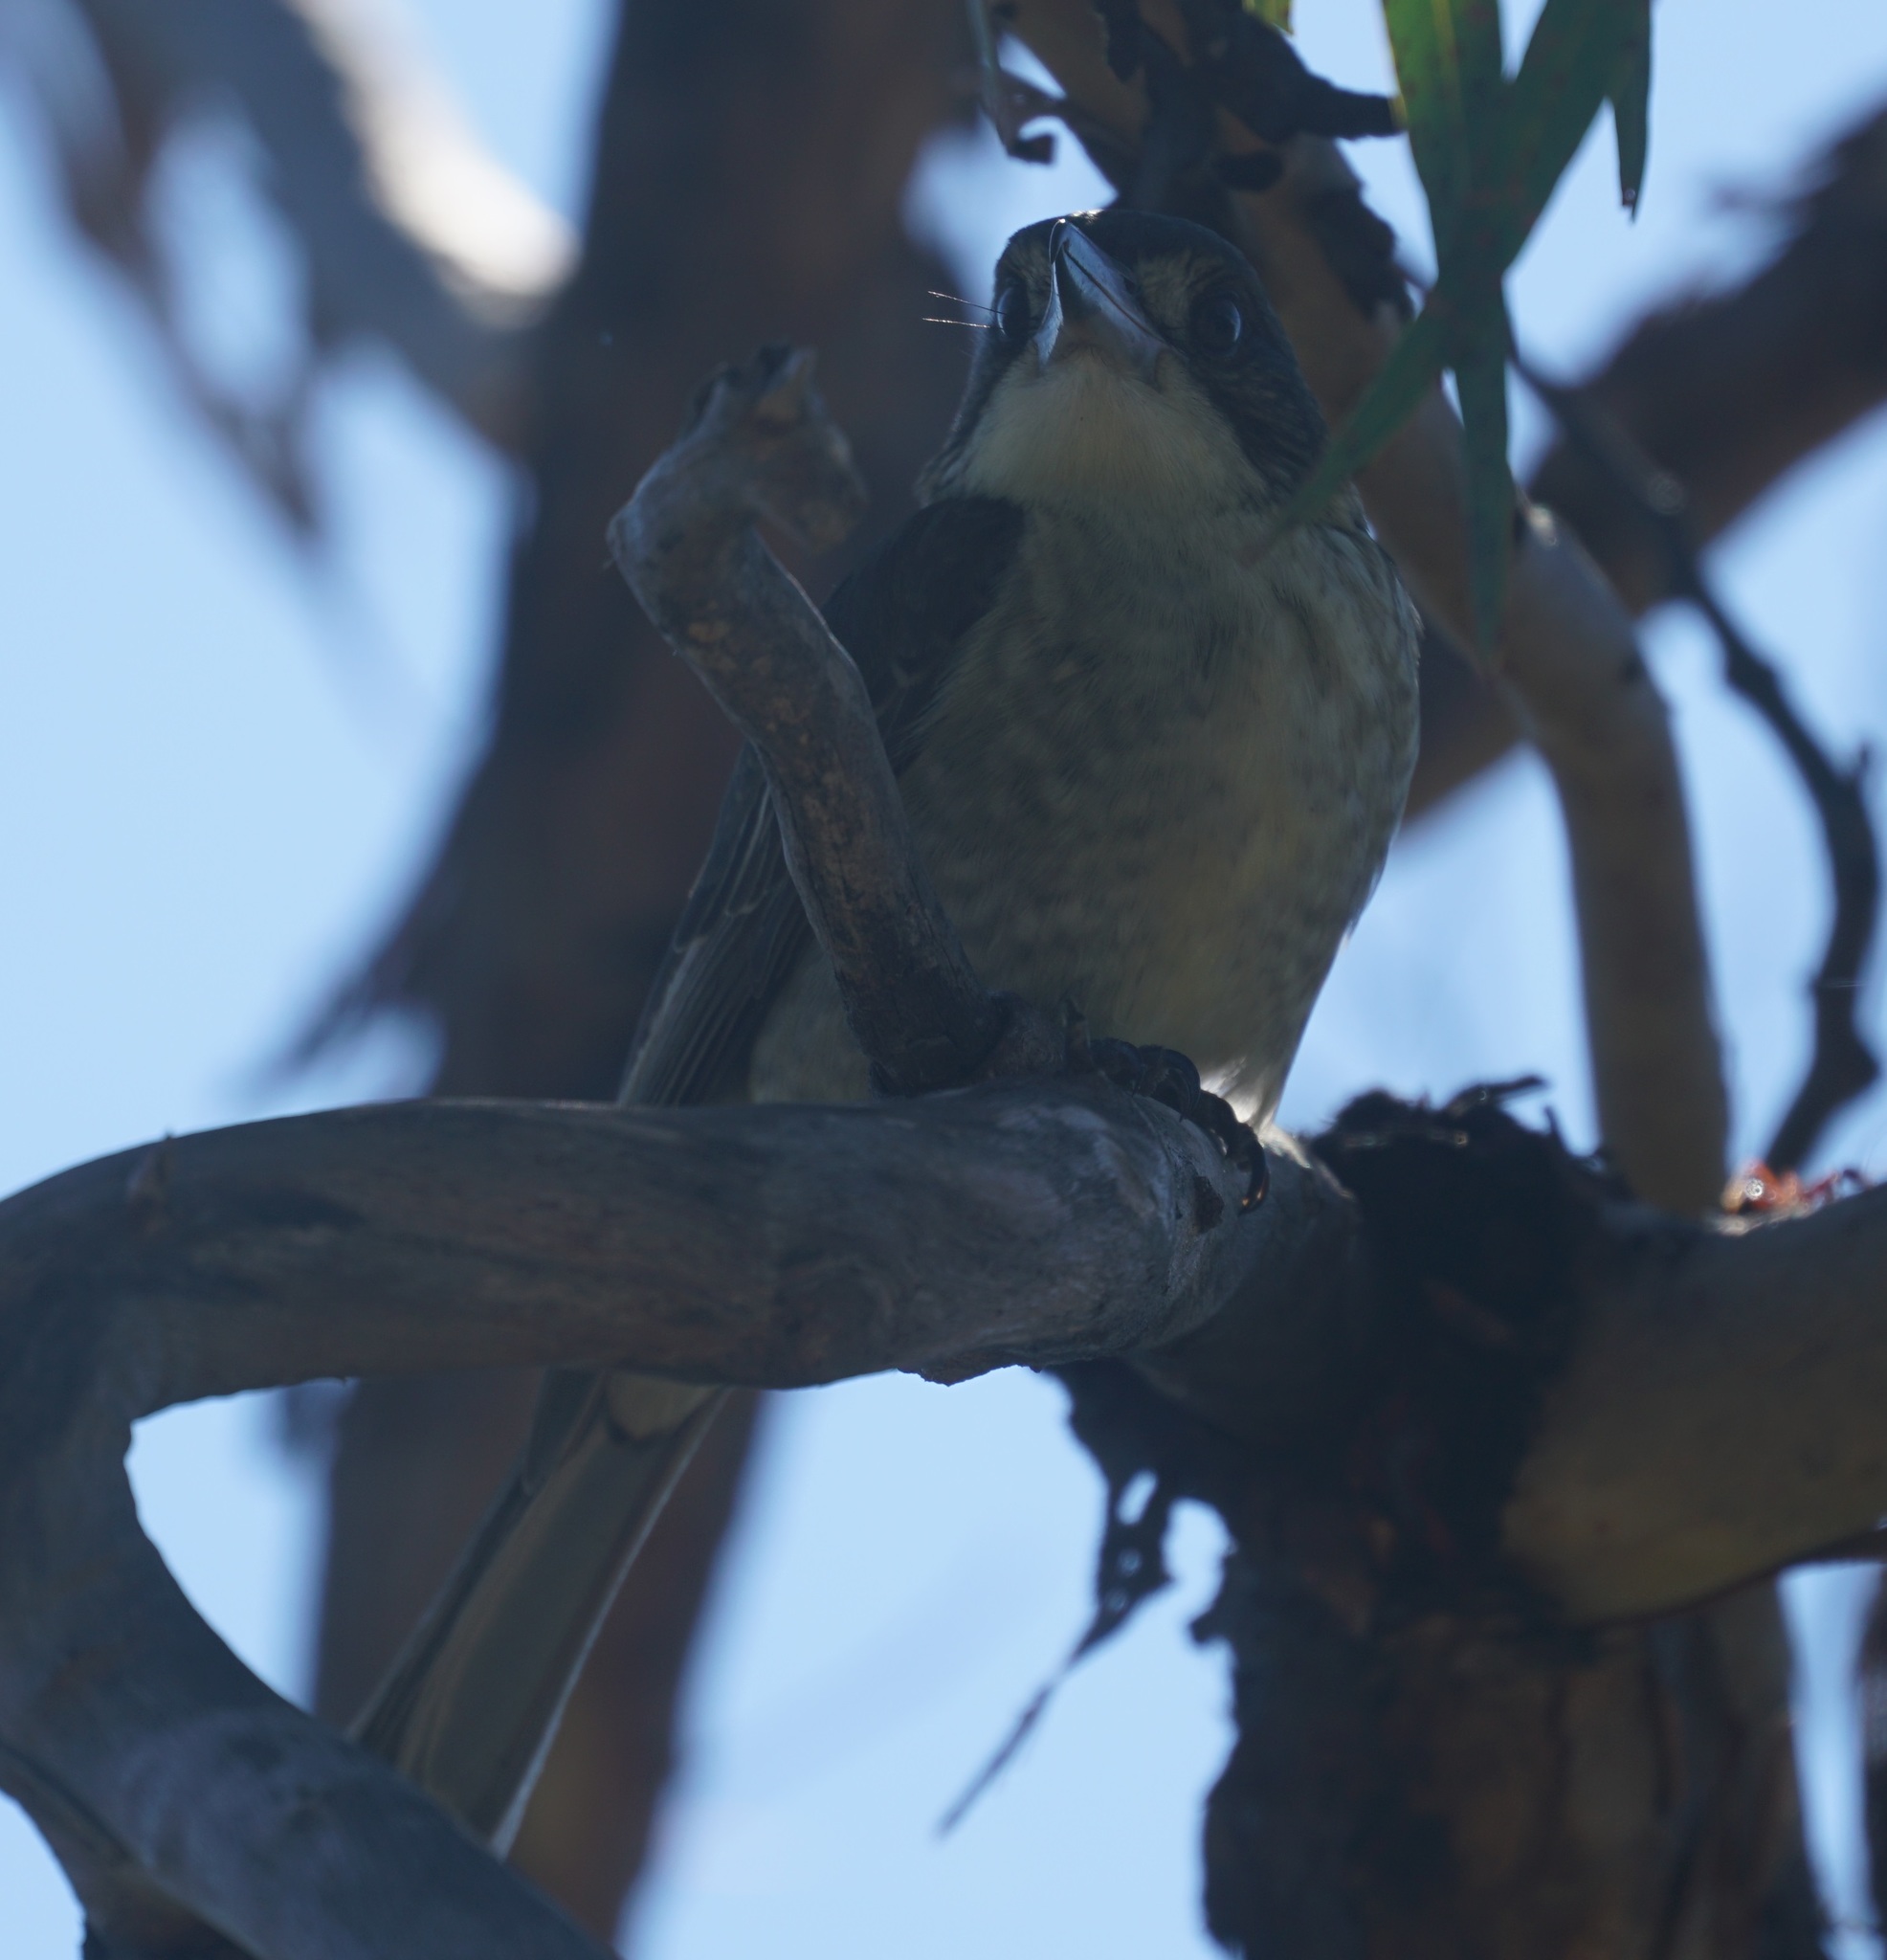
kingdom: Animalia
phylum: Chordata
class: Aves
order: Passeriformes
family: Cracticidae
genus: Cracticus
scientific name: Cracticus torquatus
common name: Grey butcherbird
